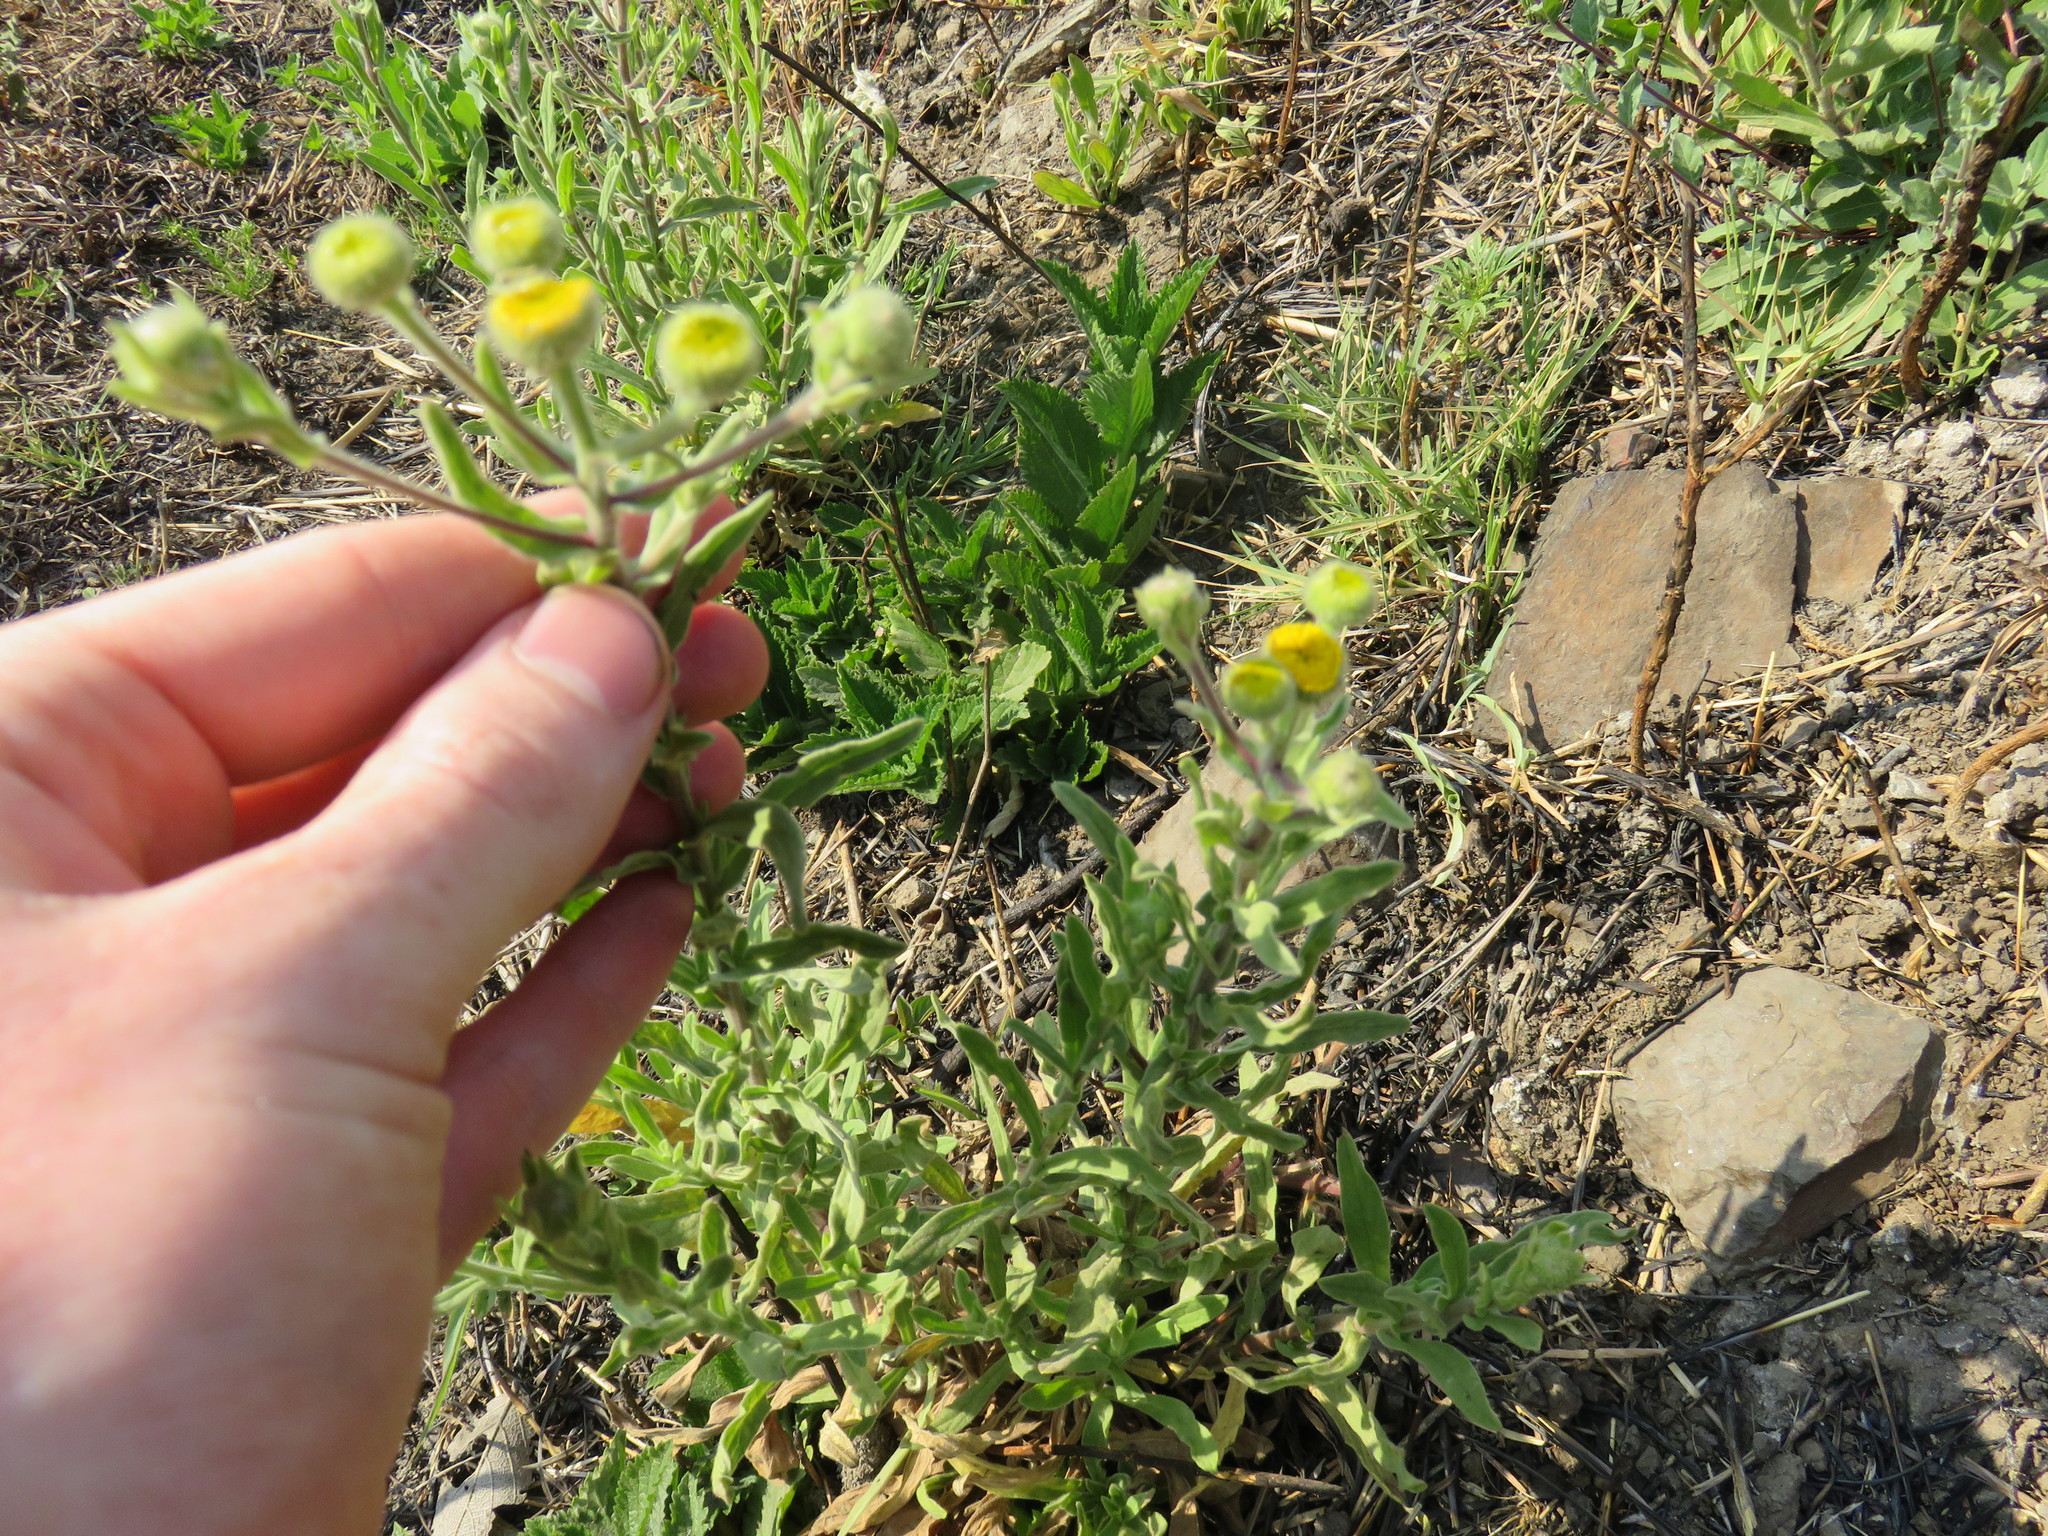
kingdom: Plantae
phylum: Tracheophyta
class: Magnoliopsida
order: Asterales
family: Asteraceae
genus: Pulicaria
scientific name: Pulicaria scabra
